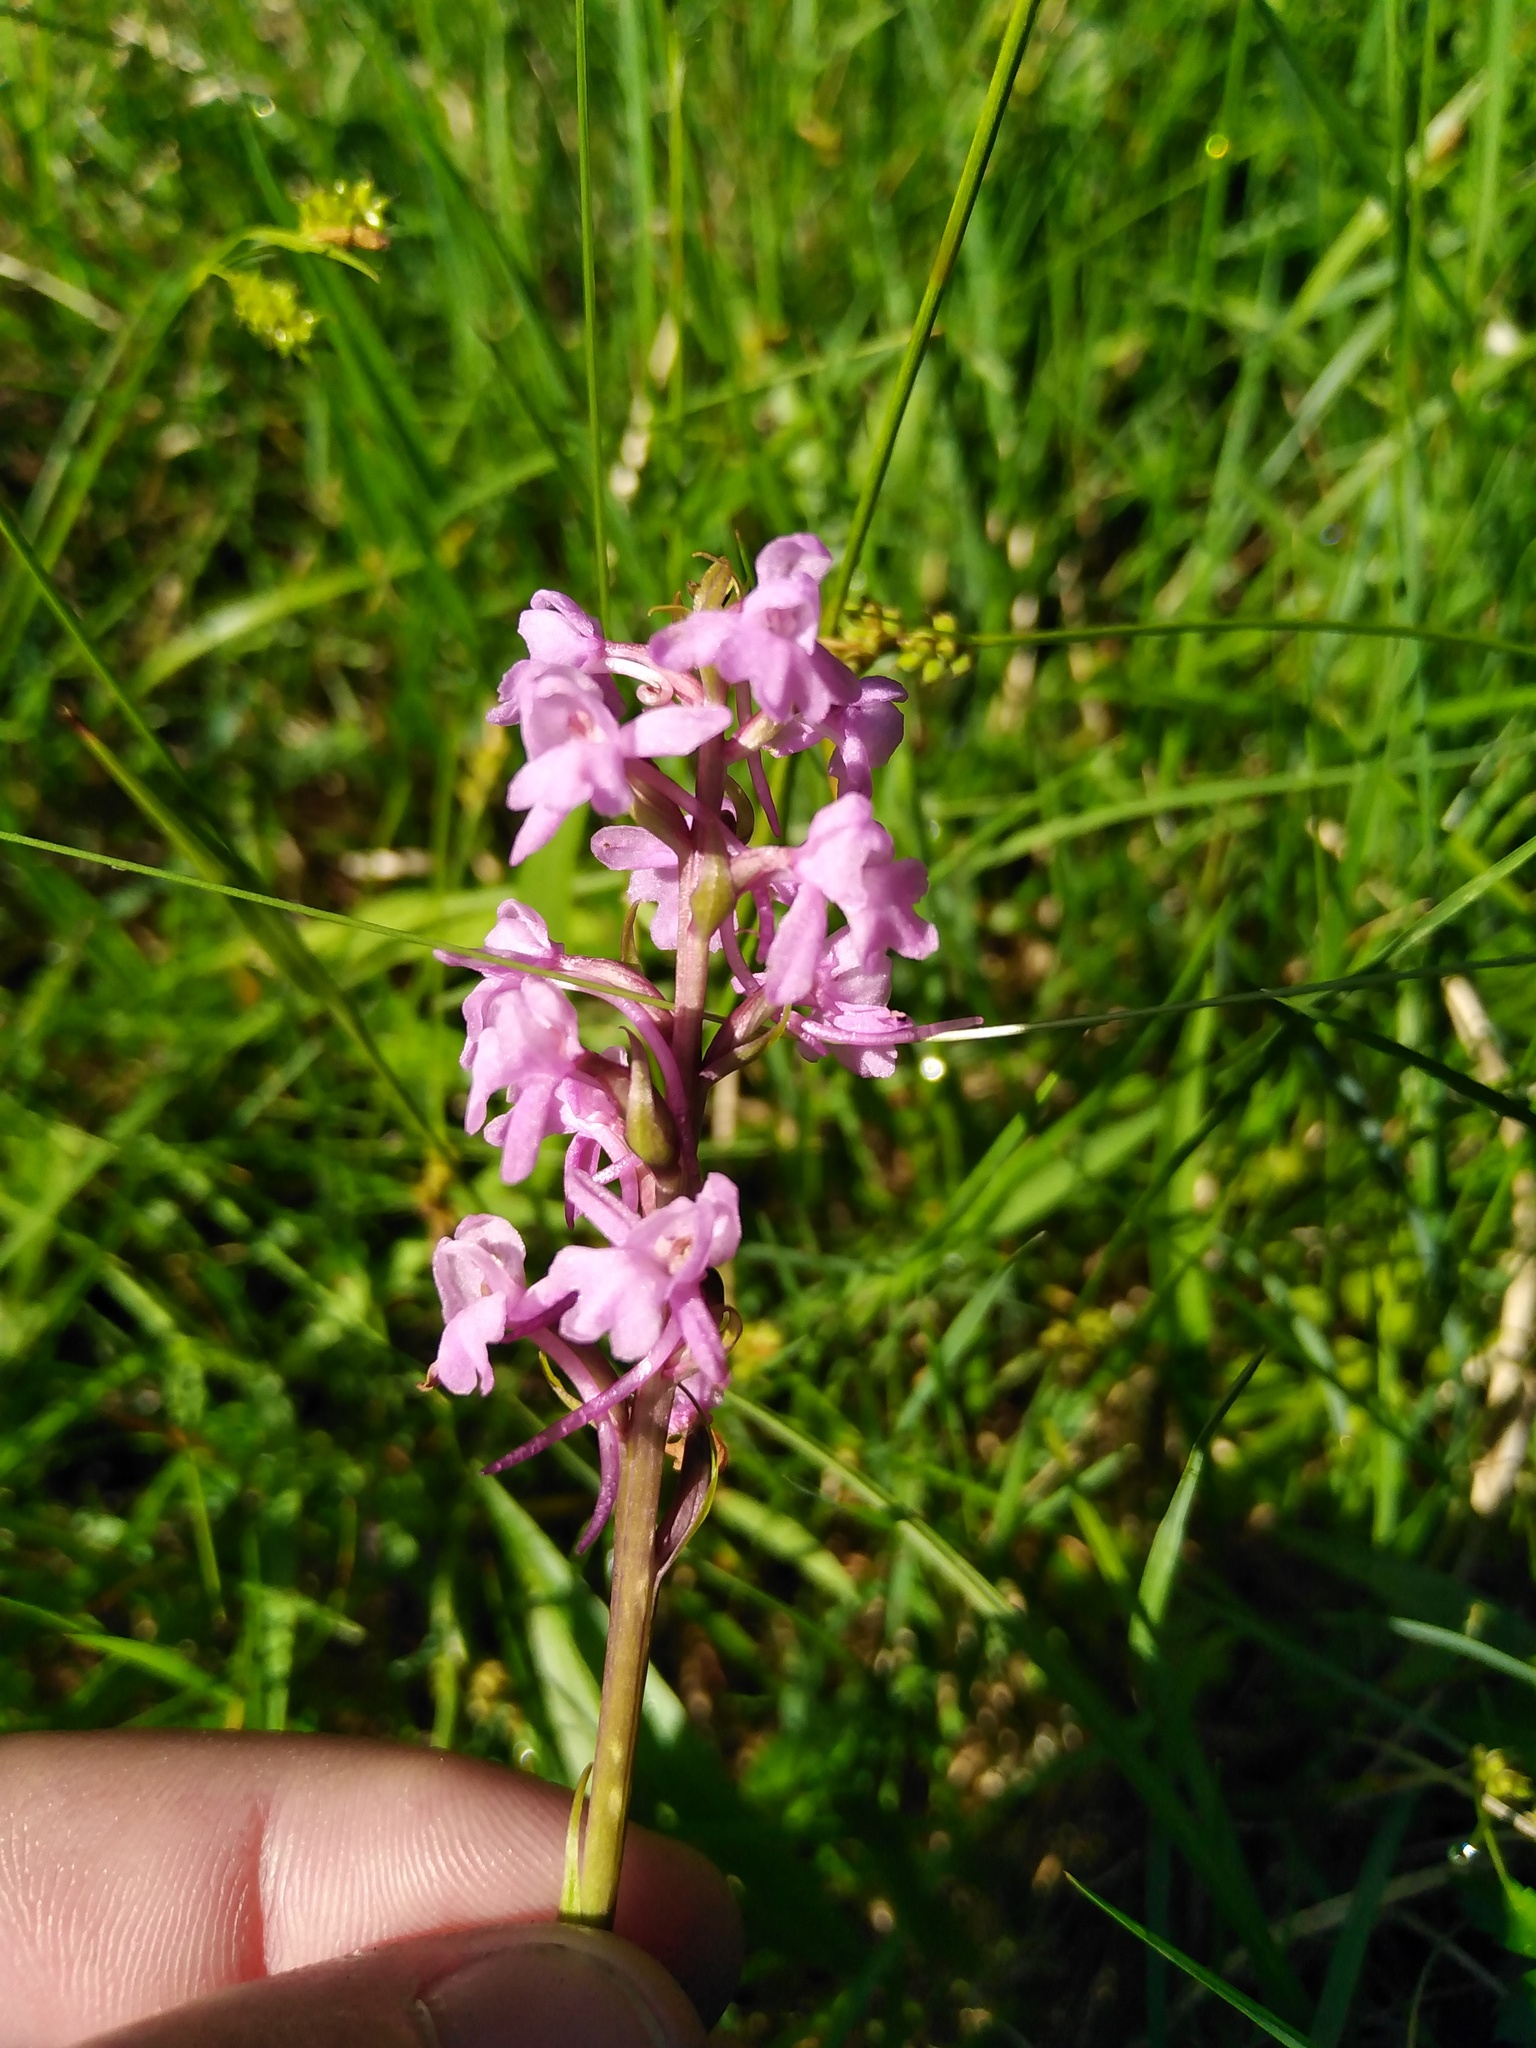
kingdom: Plantae
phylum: Tracheophyta
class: Liliopsida
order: Asparagales
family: Orchidaceae
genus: Gymnadenia
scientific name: Gymnadenia conopsea
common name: Fragrant orchid
